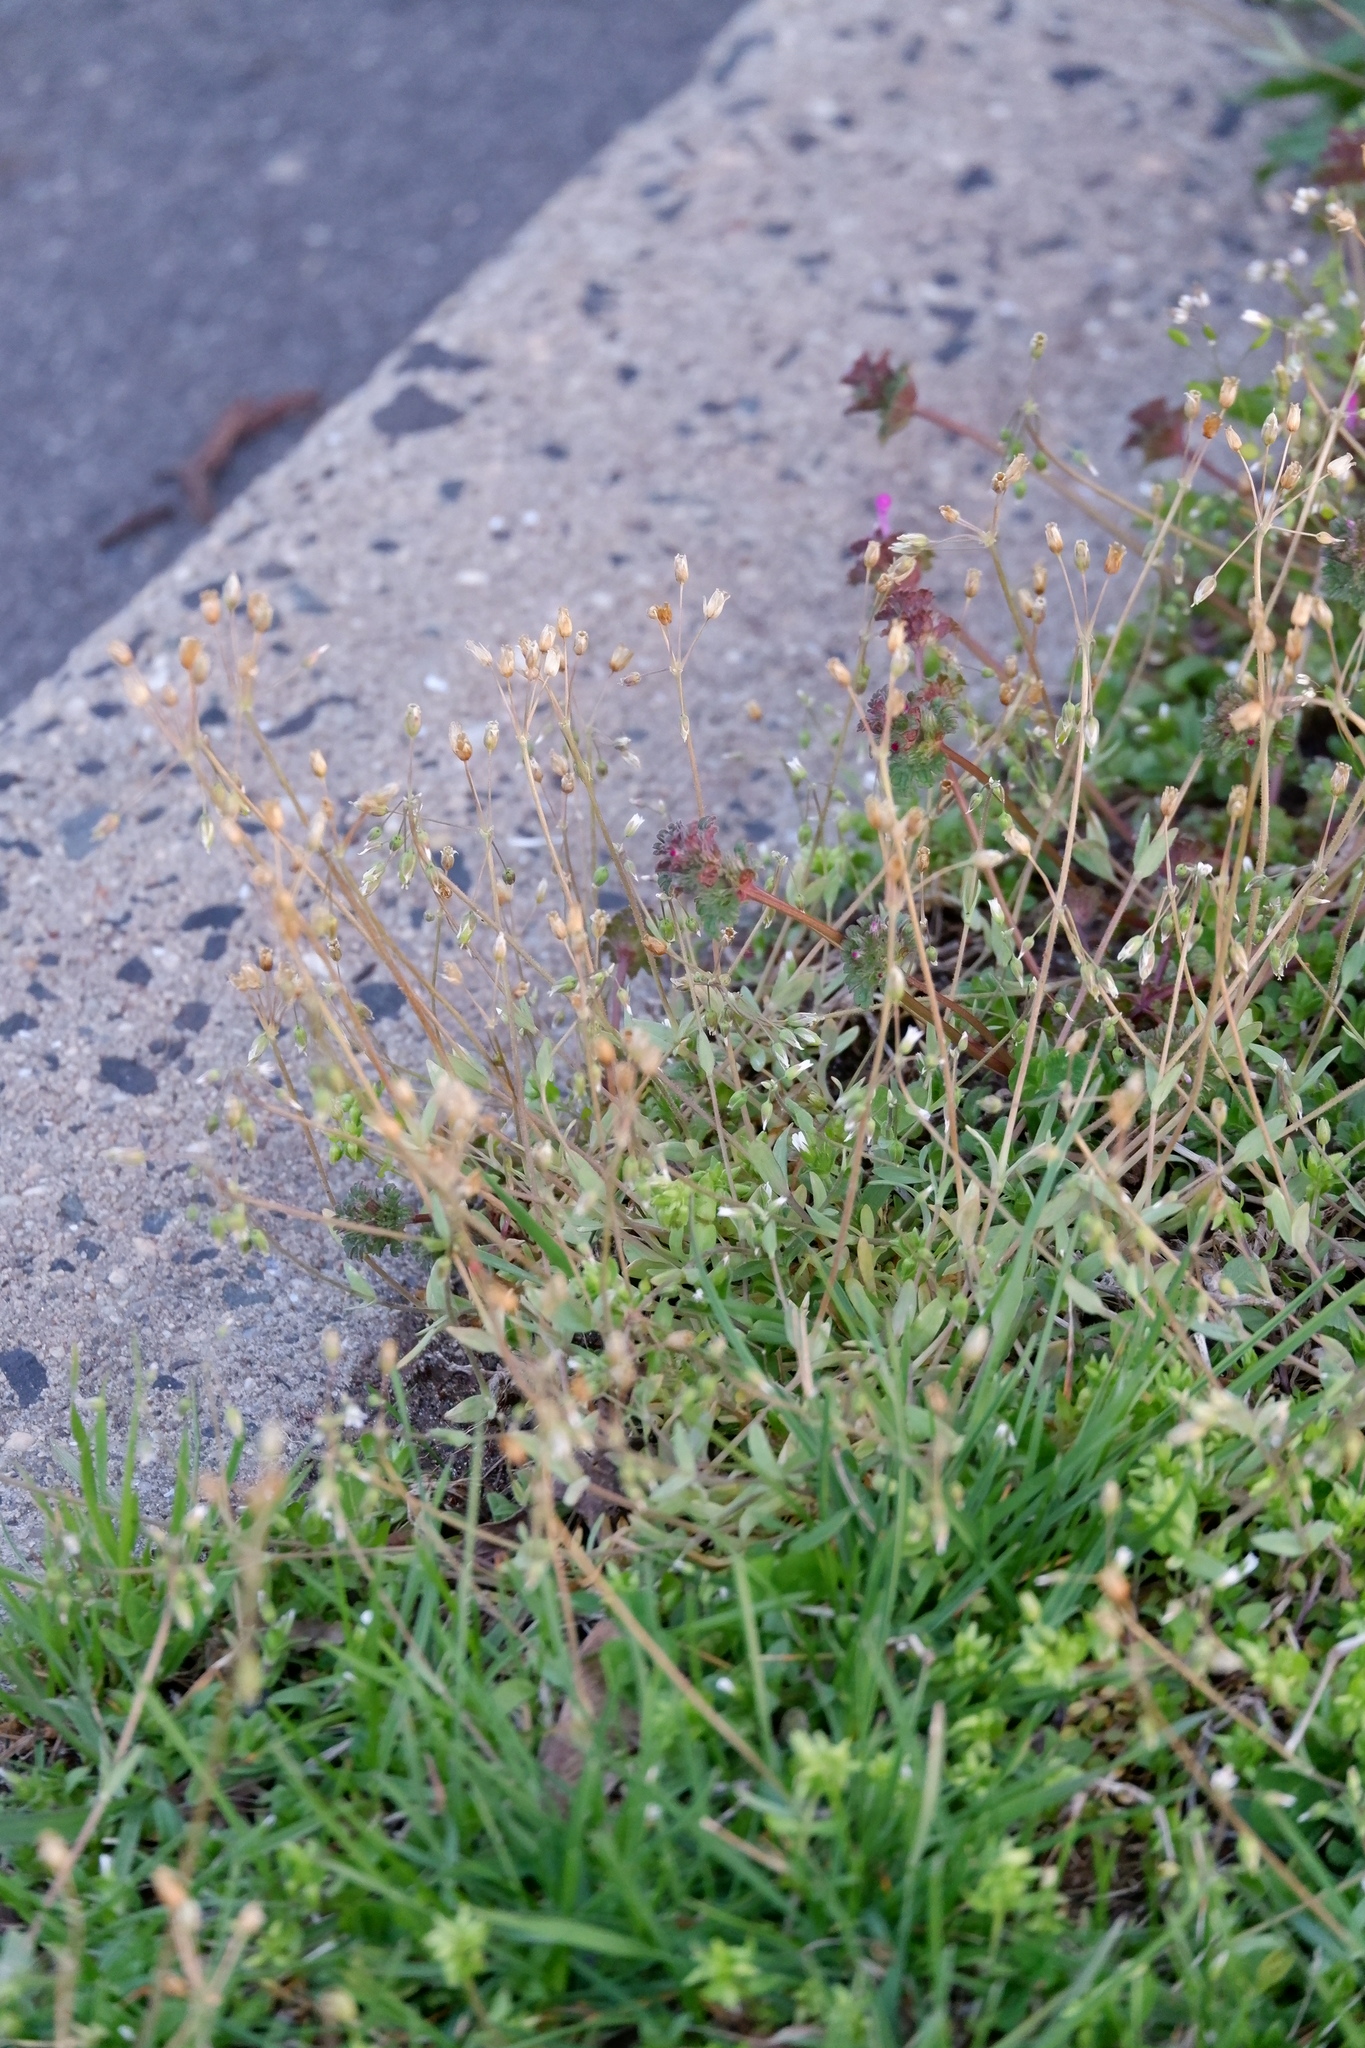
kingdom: Plantae
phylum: Tracheophyta
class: Magnoliopsida
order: Caryophyllales
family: Caryophyllaceae
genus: Holosteum
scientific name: Holosteum umbellatum
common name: Jagged chickweed
